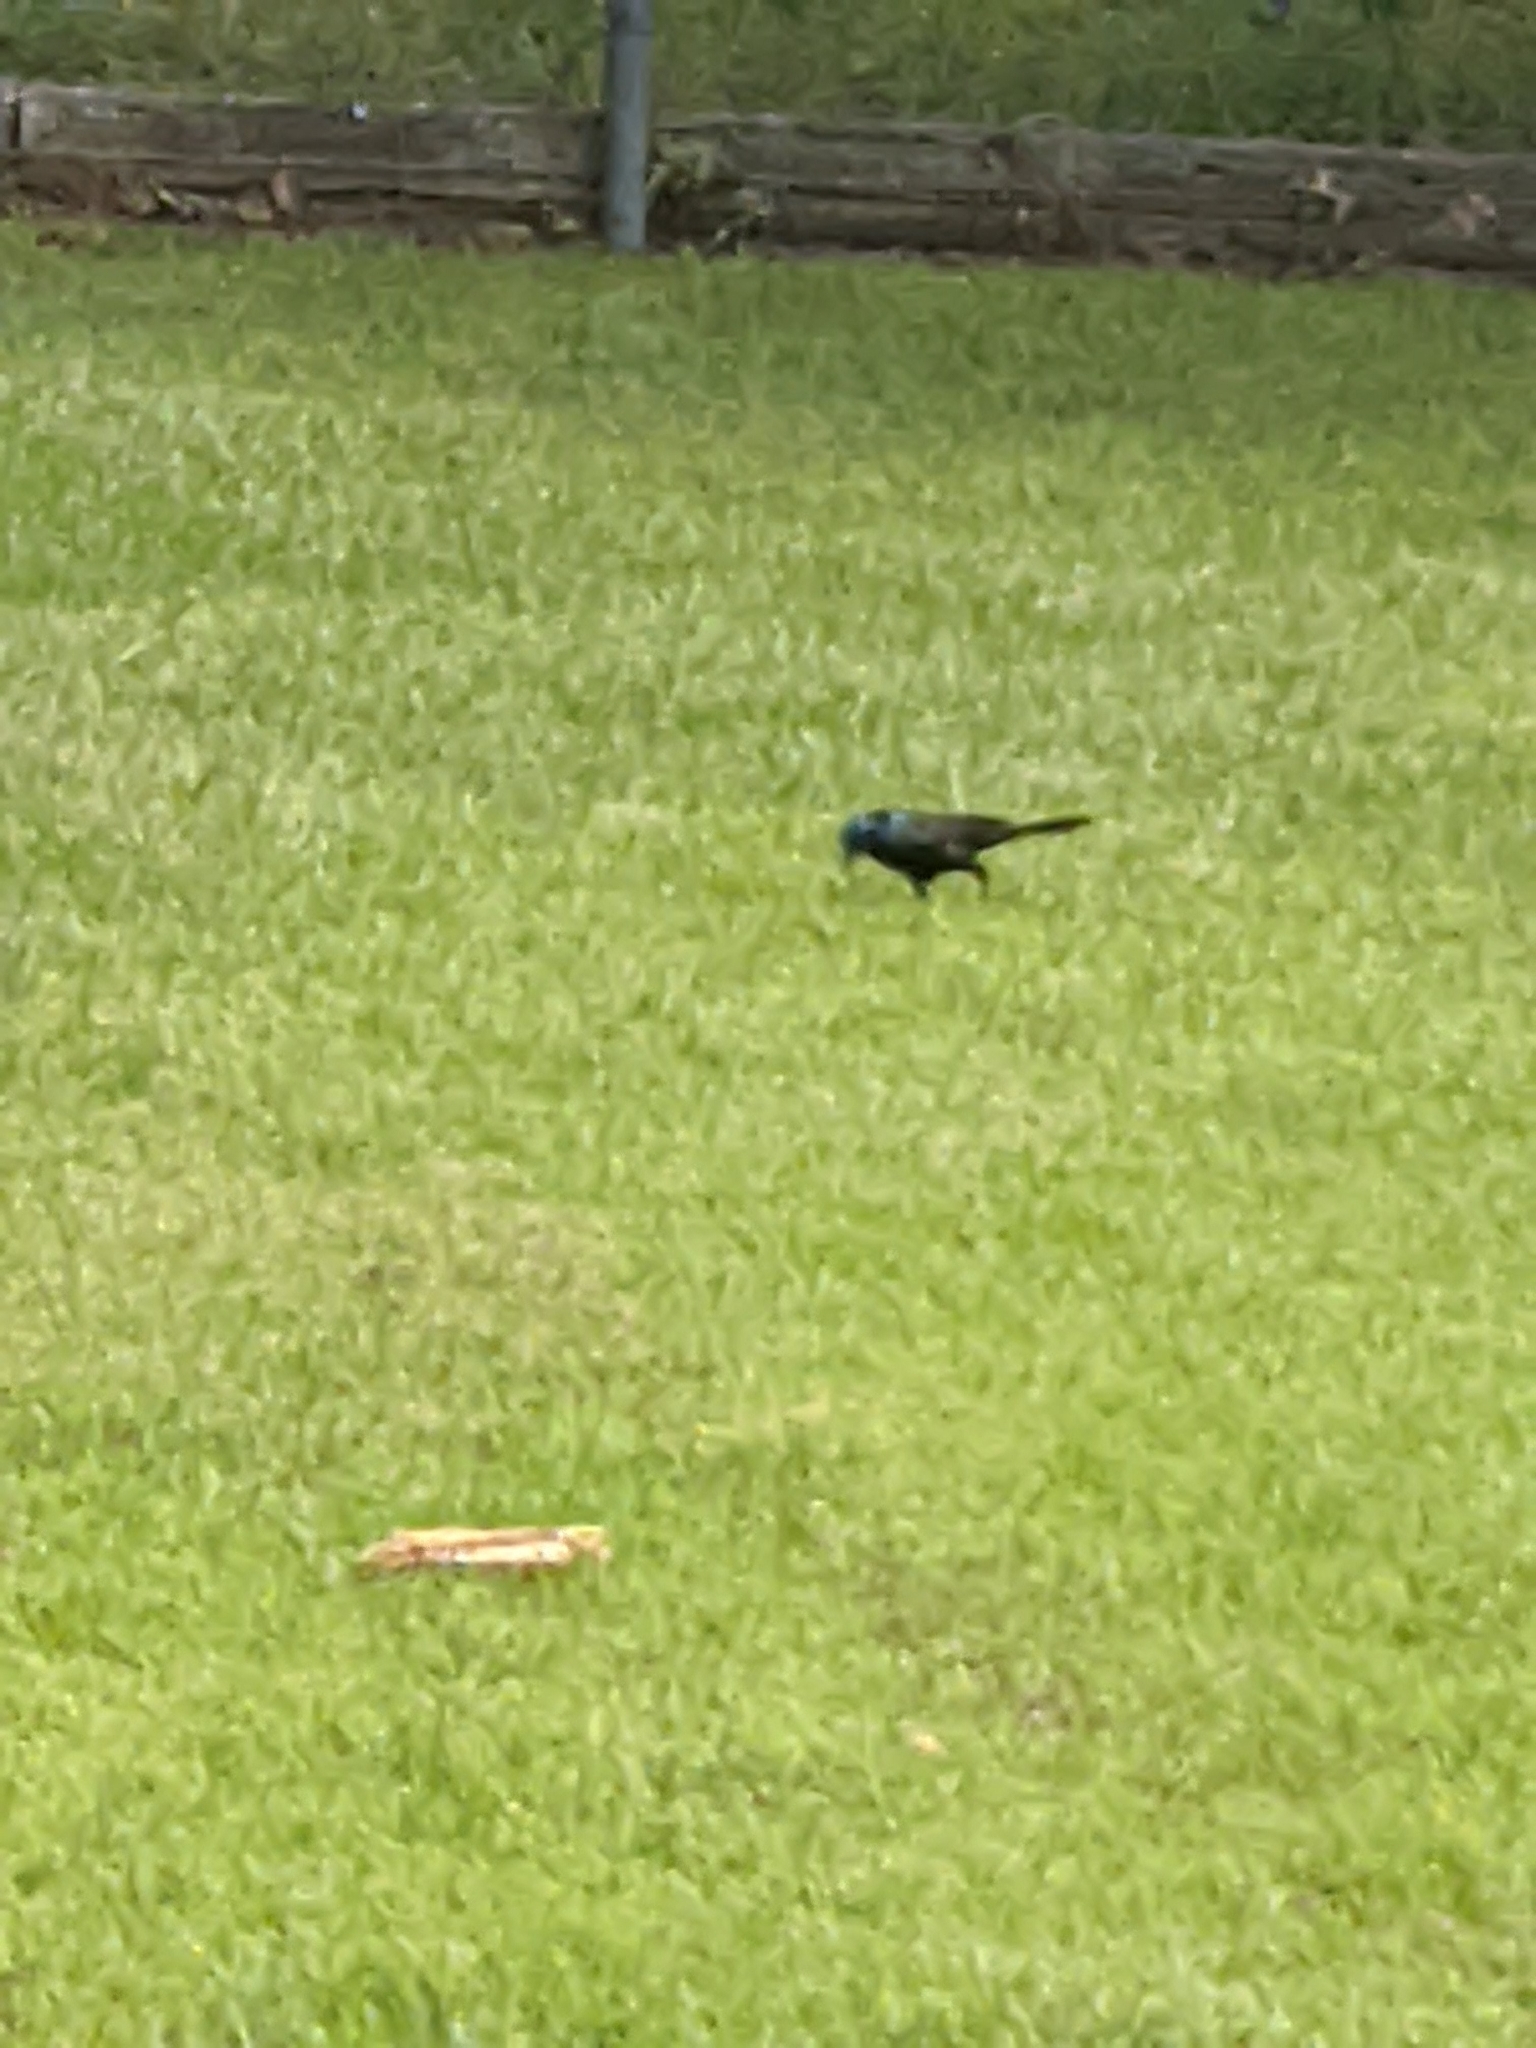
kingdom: Animalia
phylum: Chordata
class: Aves
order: Passeriformes
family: Icteridae
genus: Quiscalus
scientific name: Quiscalus quiscula
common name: Common grackle
